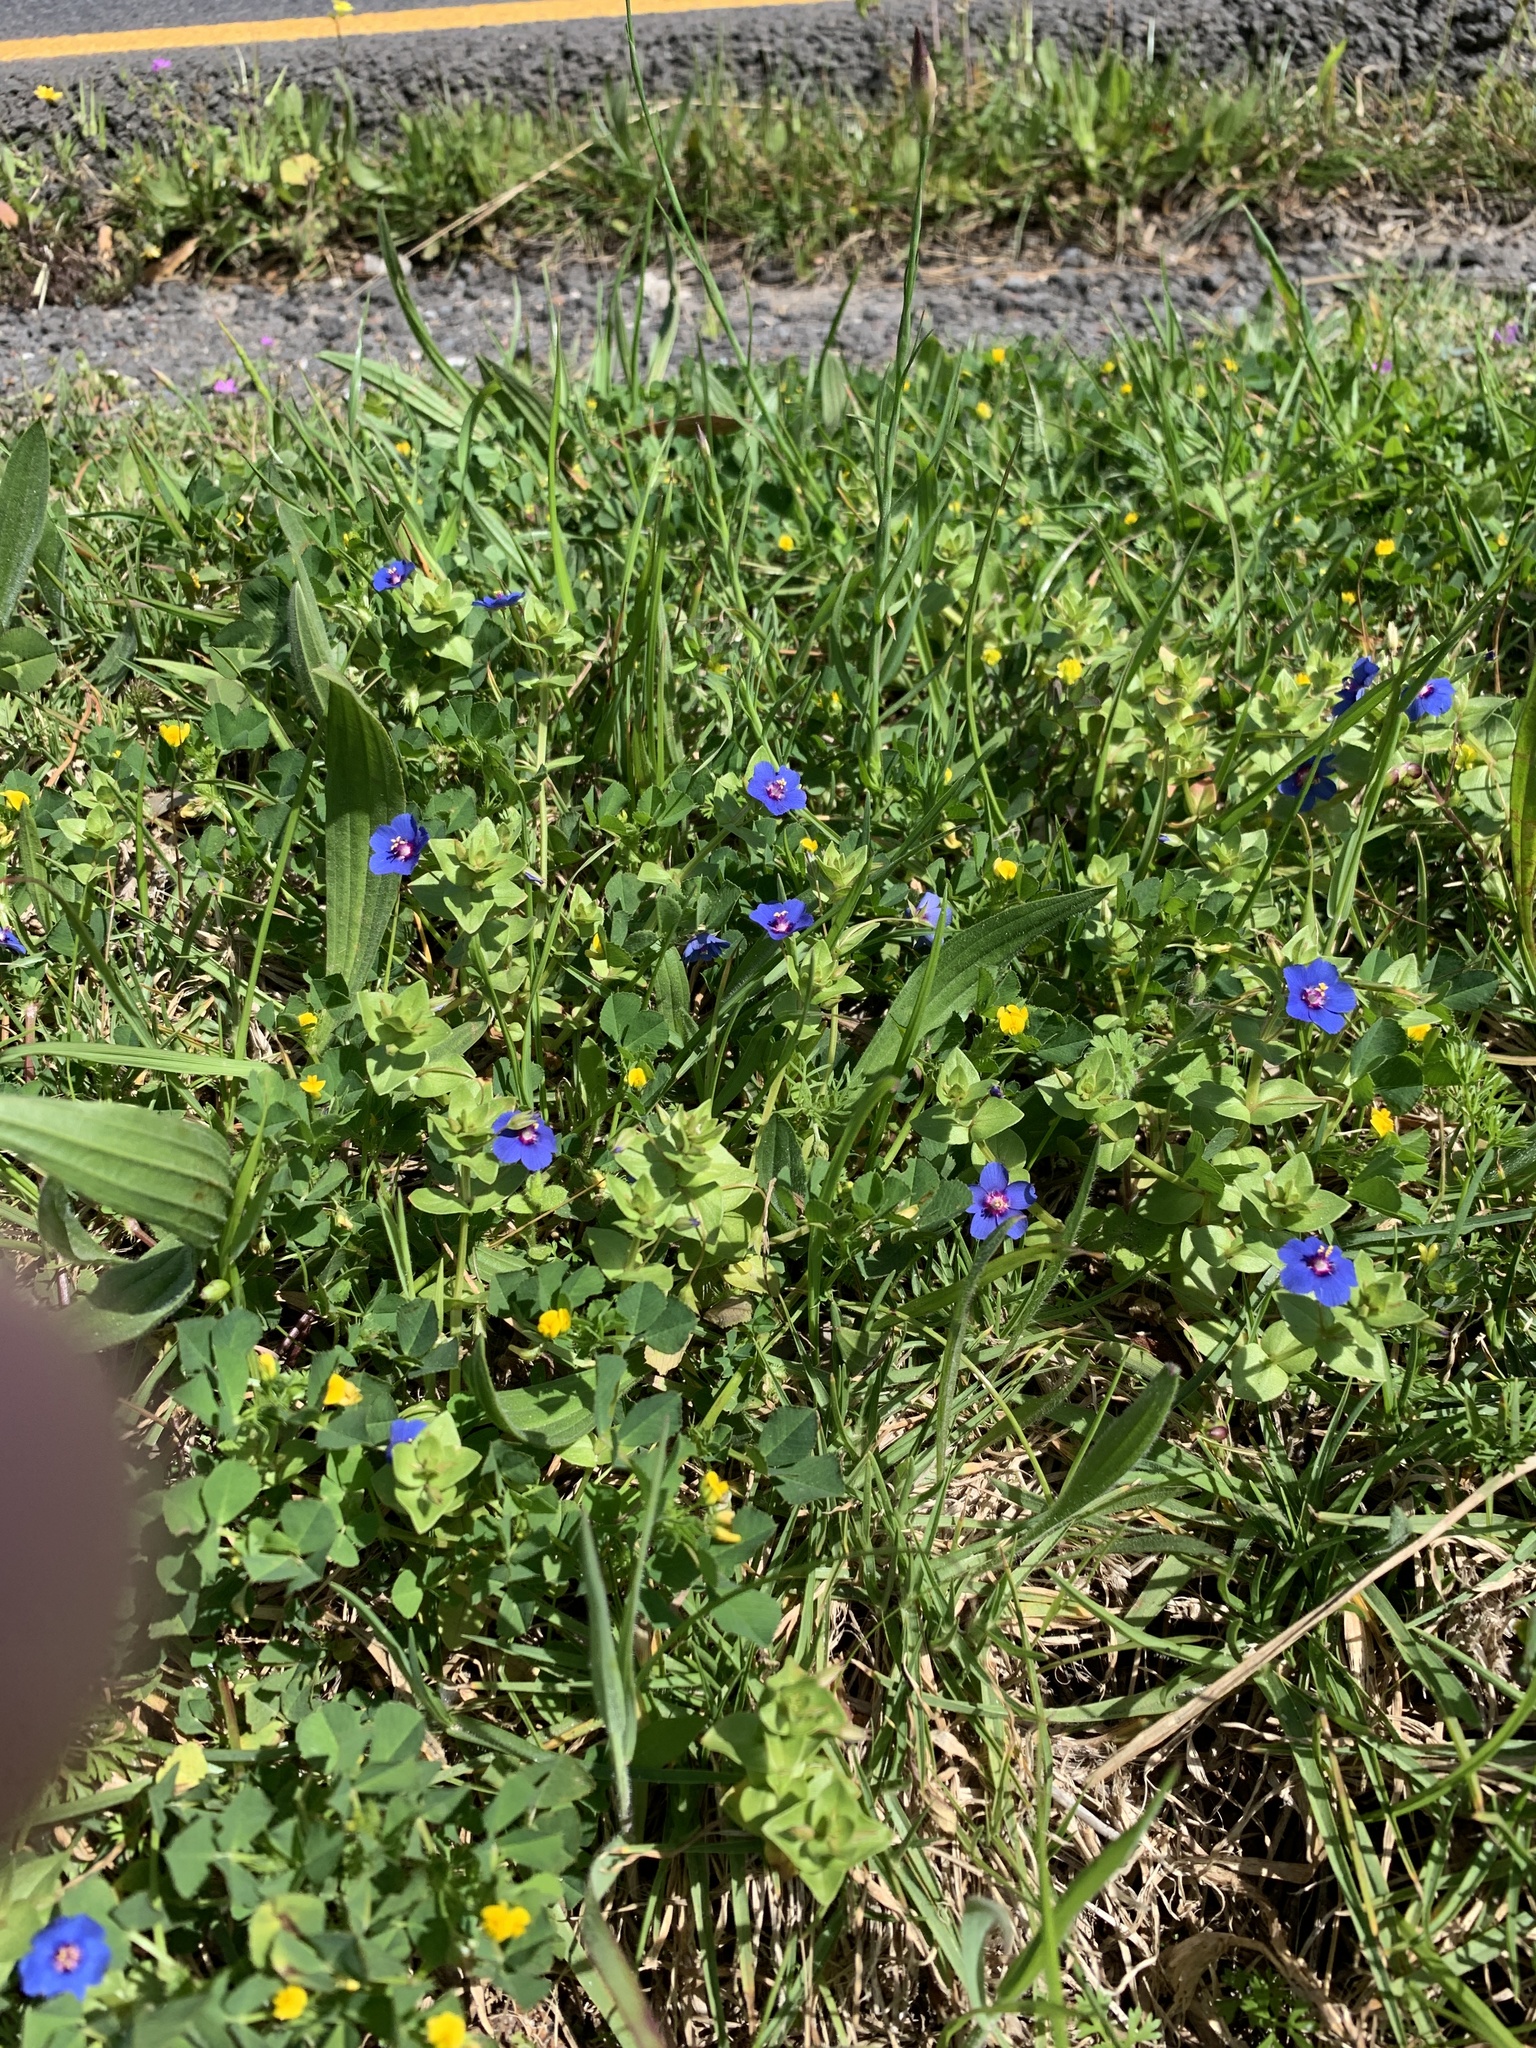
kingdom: Plantae
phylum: Tracheophyta
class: Magnoliopsida
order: Ericales
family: Primulaceae
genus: Lysimachia
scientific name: Lysimachia loeflingii
